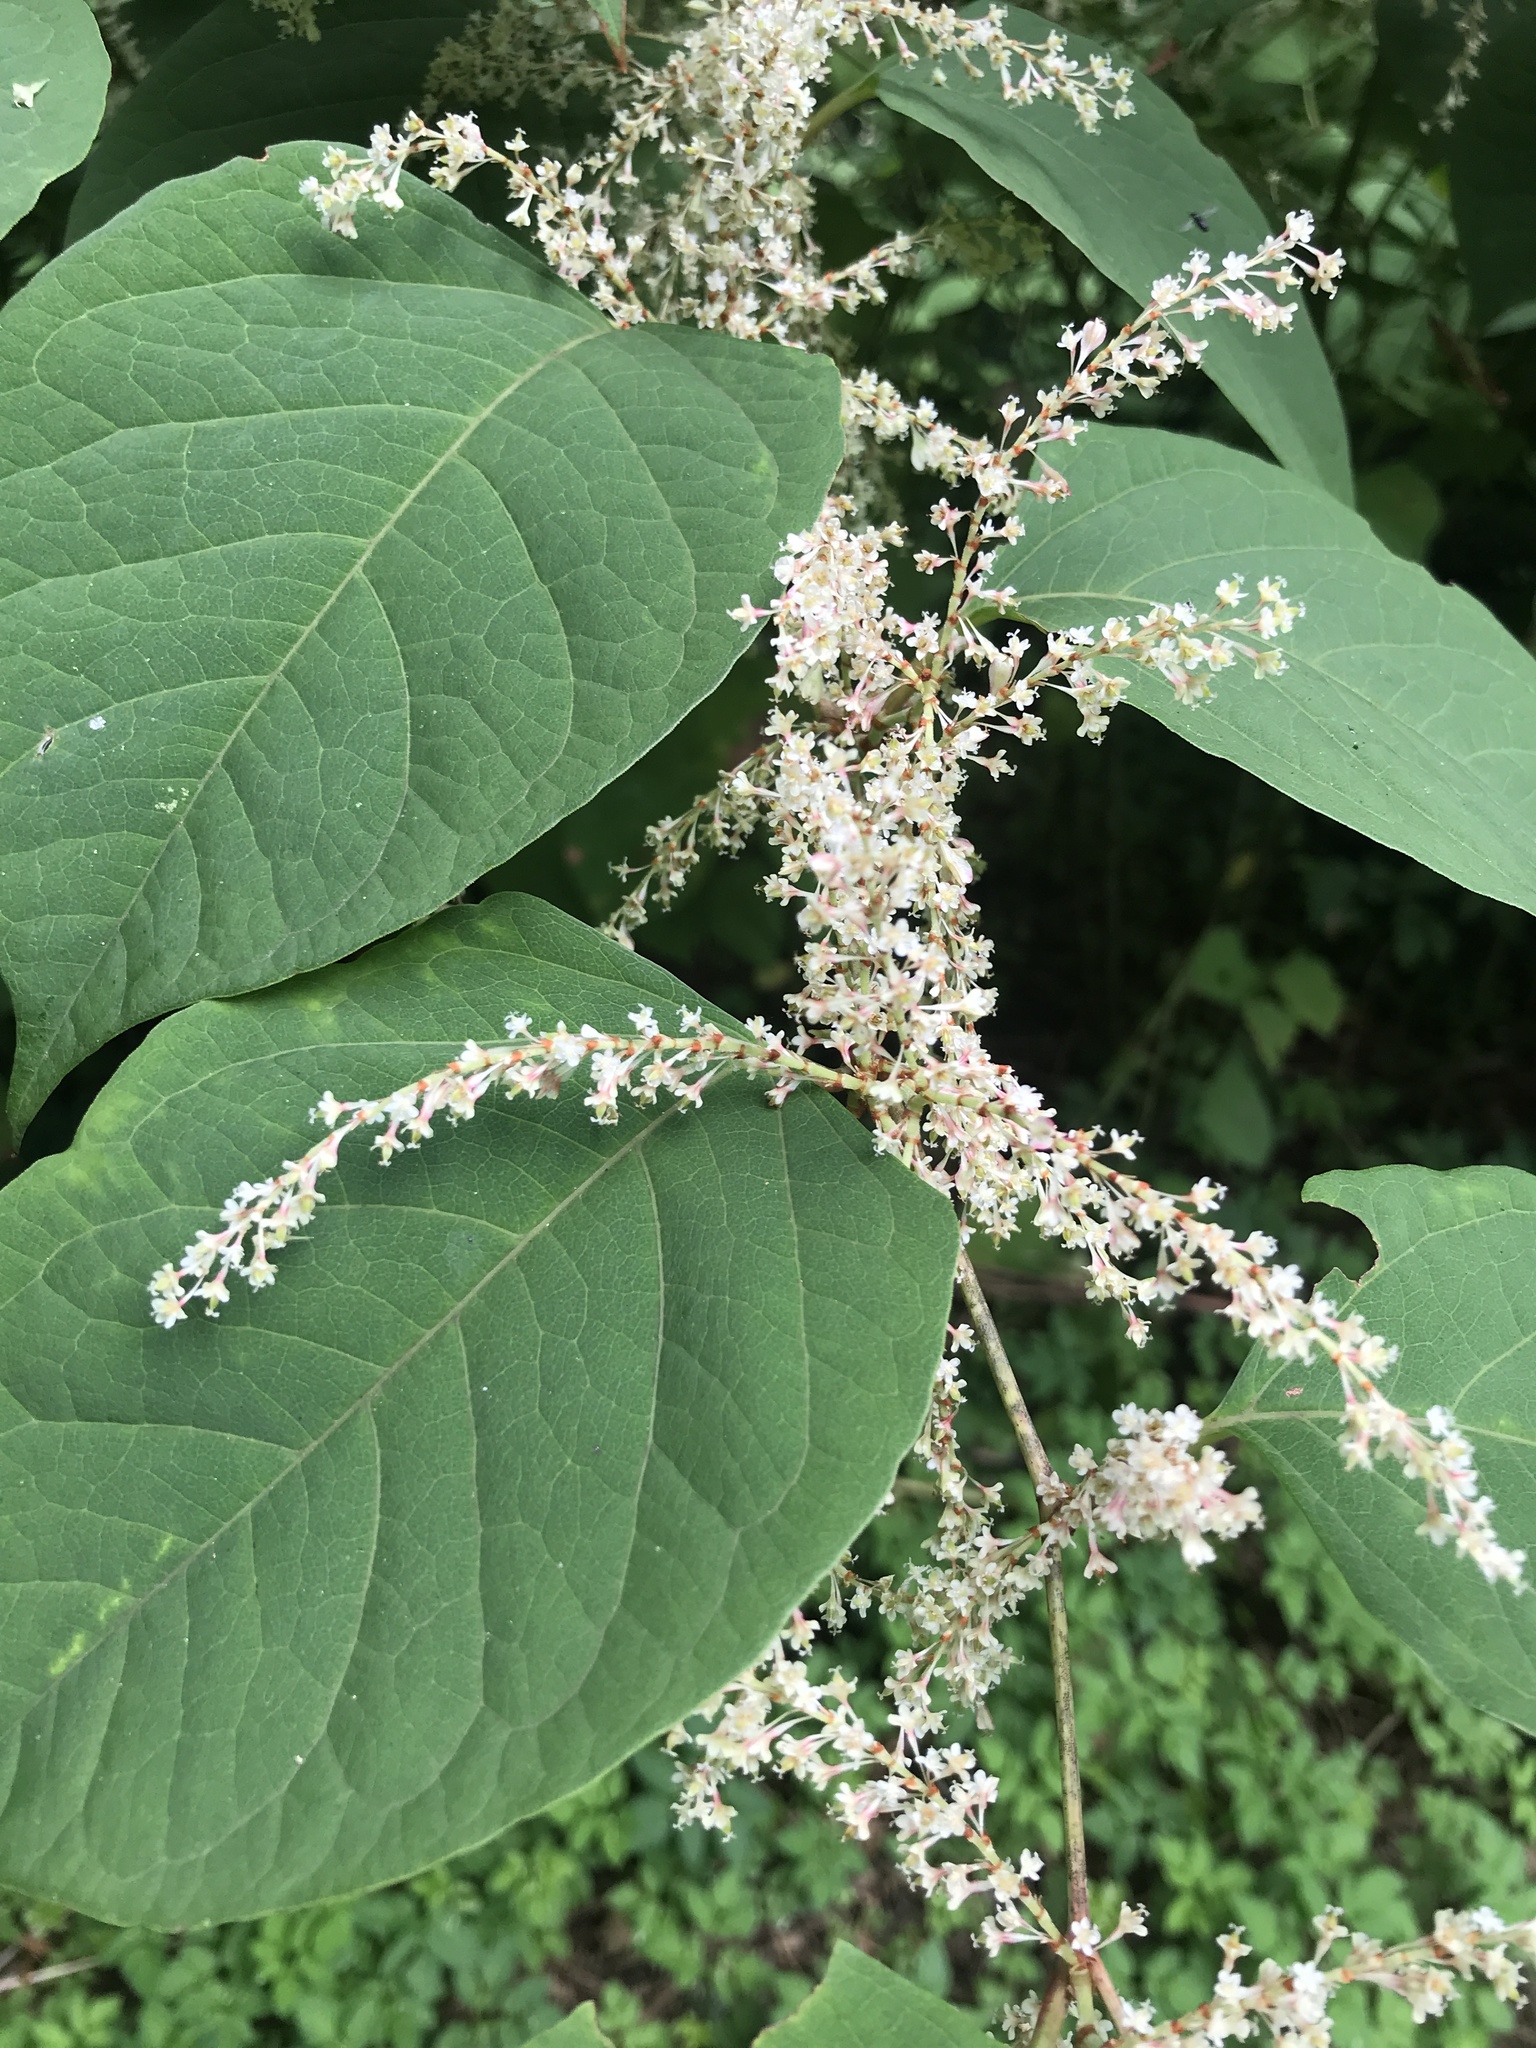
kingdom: Plantae
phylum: Tracheophyta
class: Magnoliopsida
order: Caryophyllales
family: Polygonaceae
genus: Reynoutria
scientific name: Reynoutria japonica
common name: Japanese knotweed
